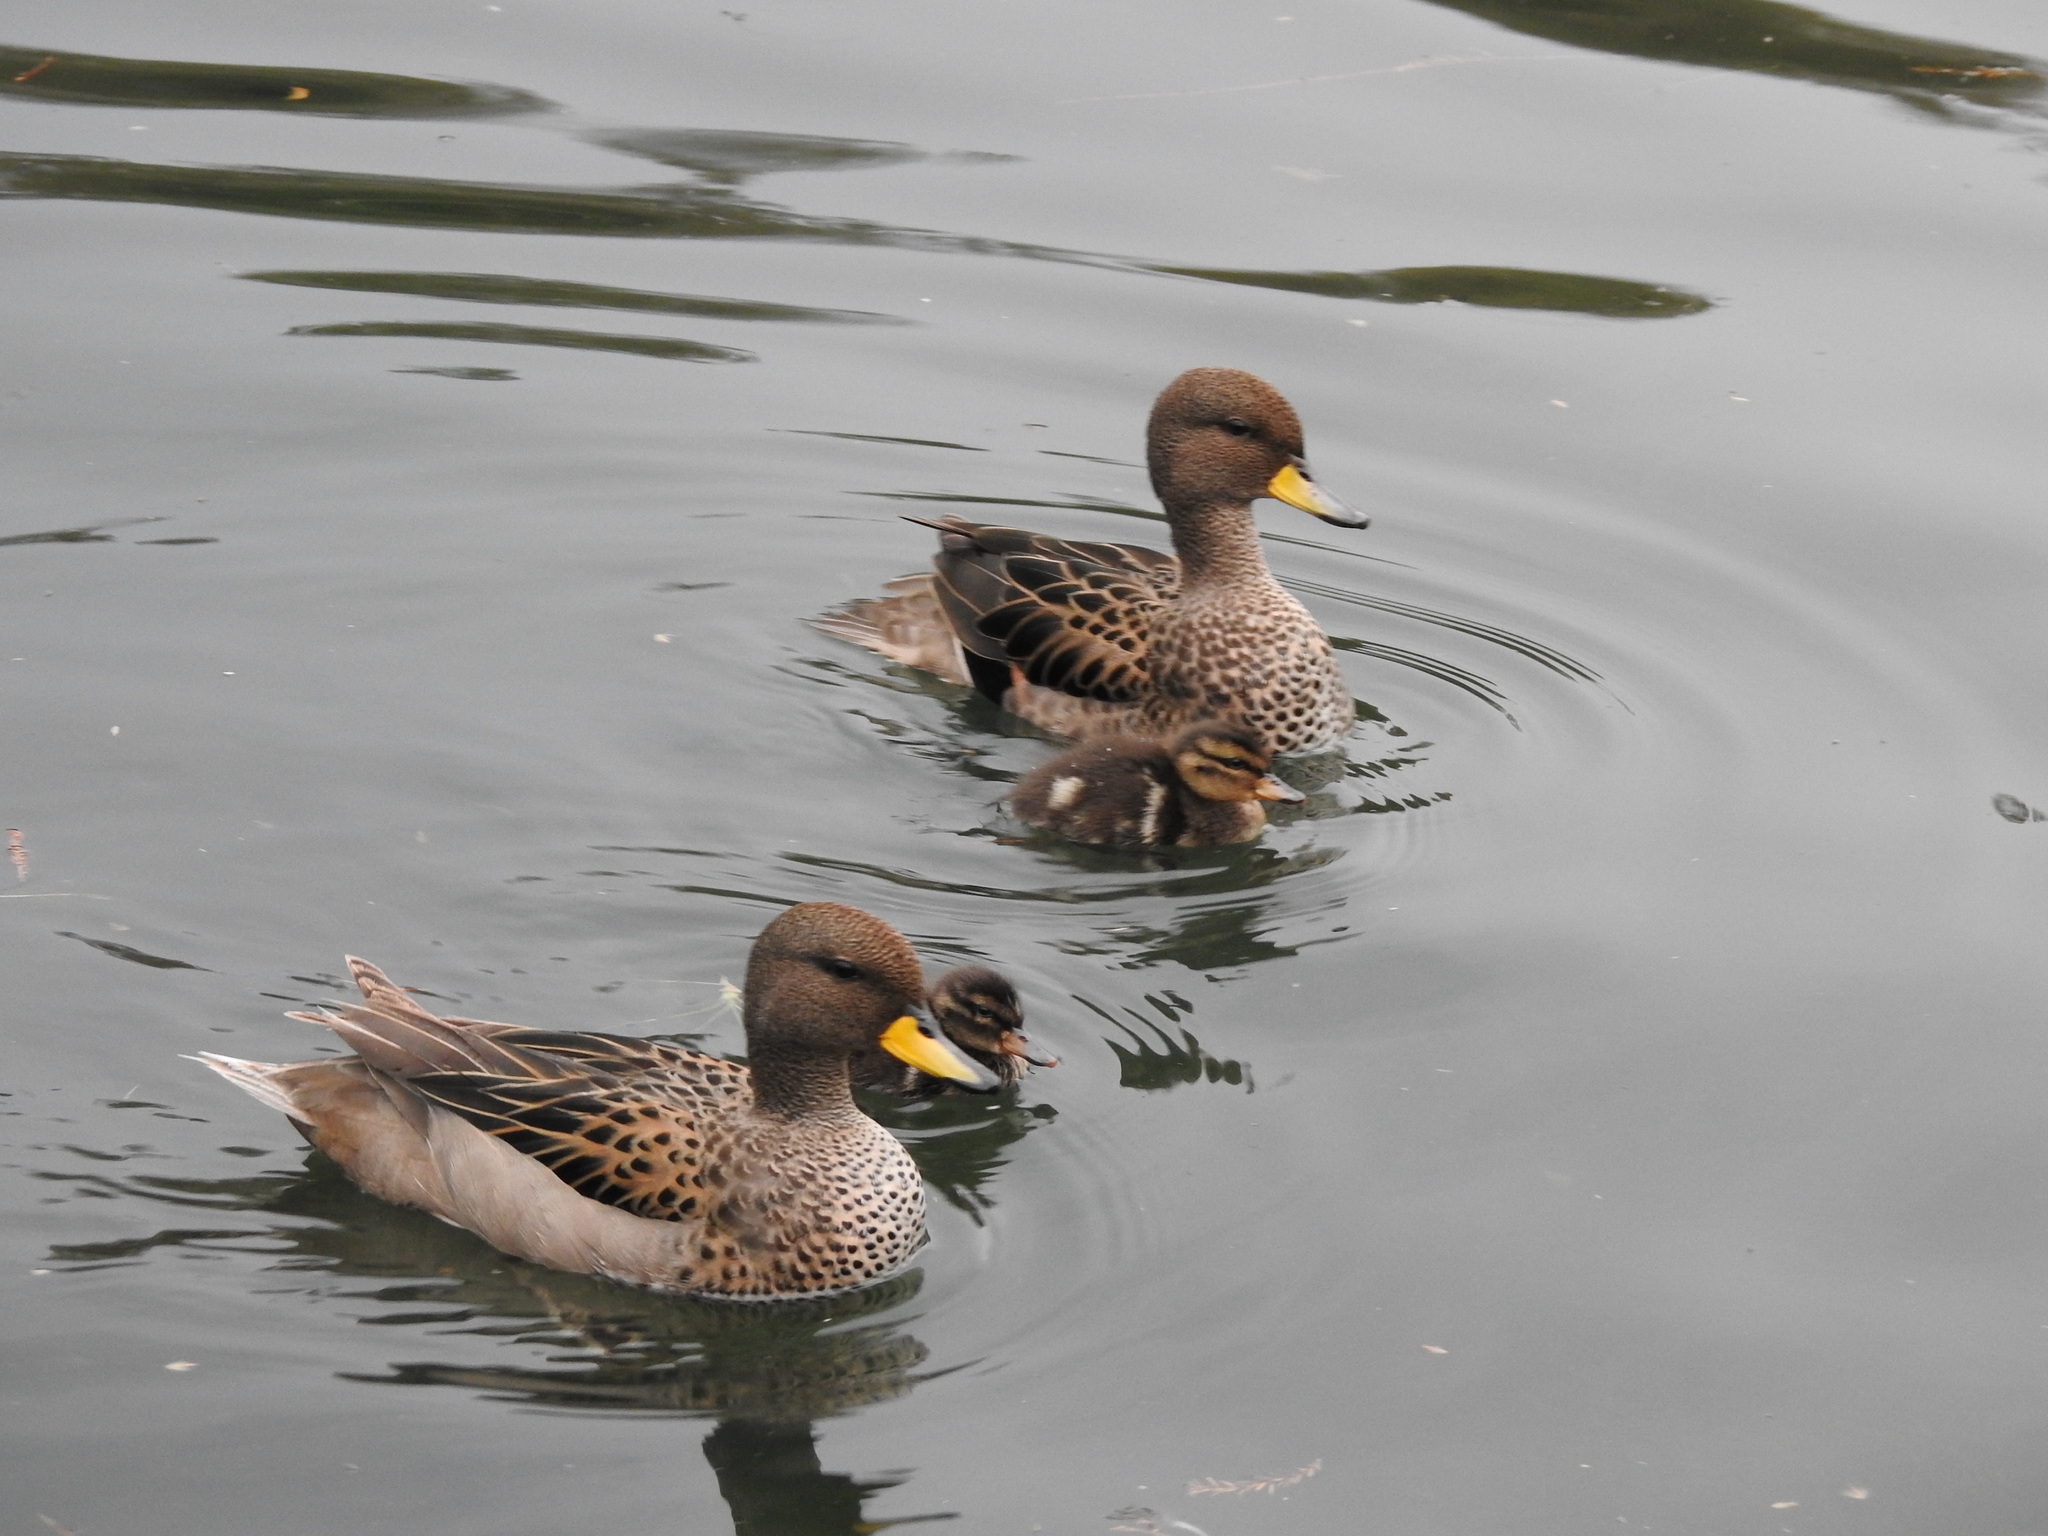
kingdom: Animalia
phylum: Chordata
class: Aves
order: Anseriformes
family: Anatidae
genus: Anas
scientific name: Anas flavirostris
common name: Yellow-billed teal
